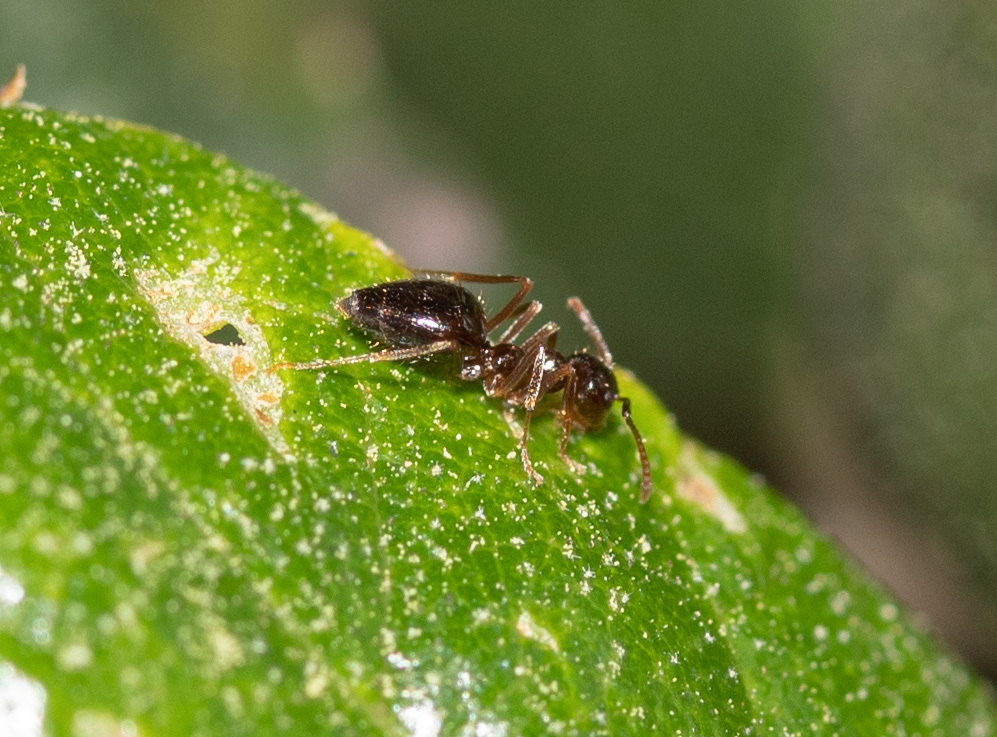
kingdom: Animalia
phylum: Arthropoda
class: Insecta
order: Hymenoptera
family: Formicidae
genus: Prenolepis
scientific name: Prenolepis imparis
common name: Small honey ant
